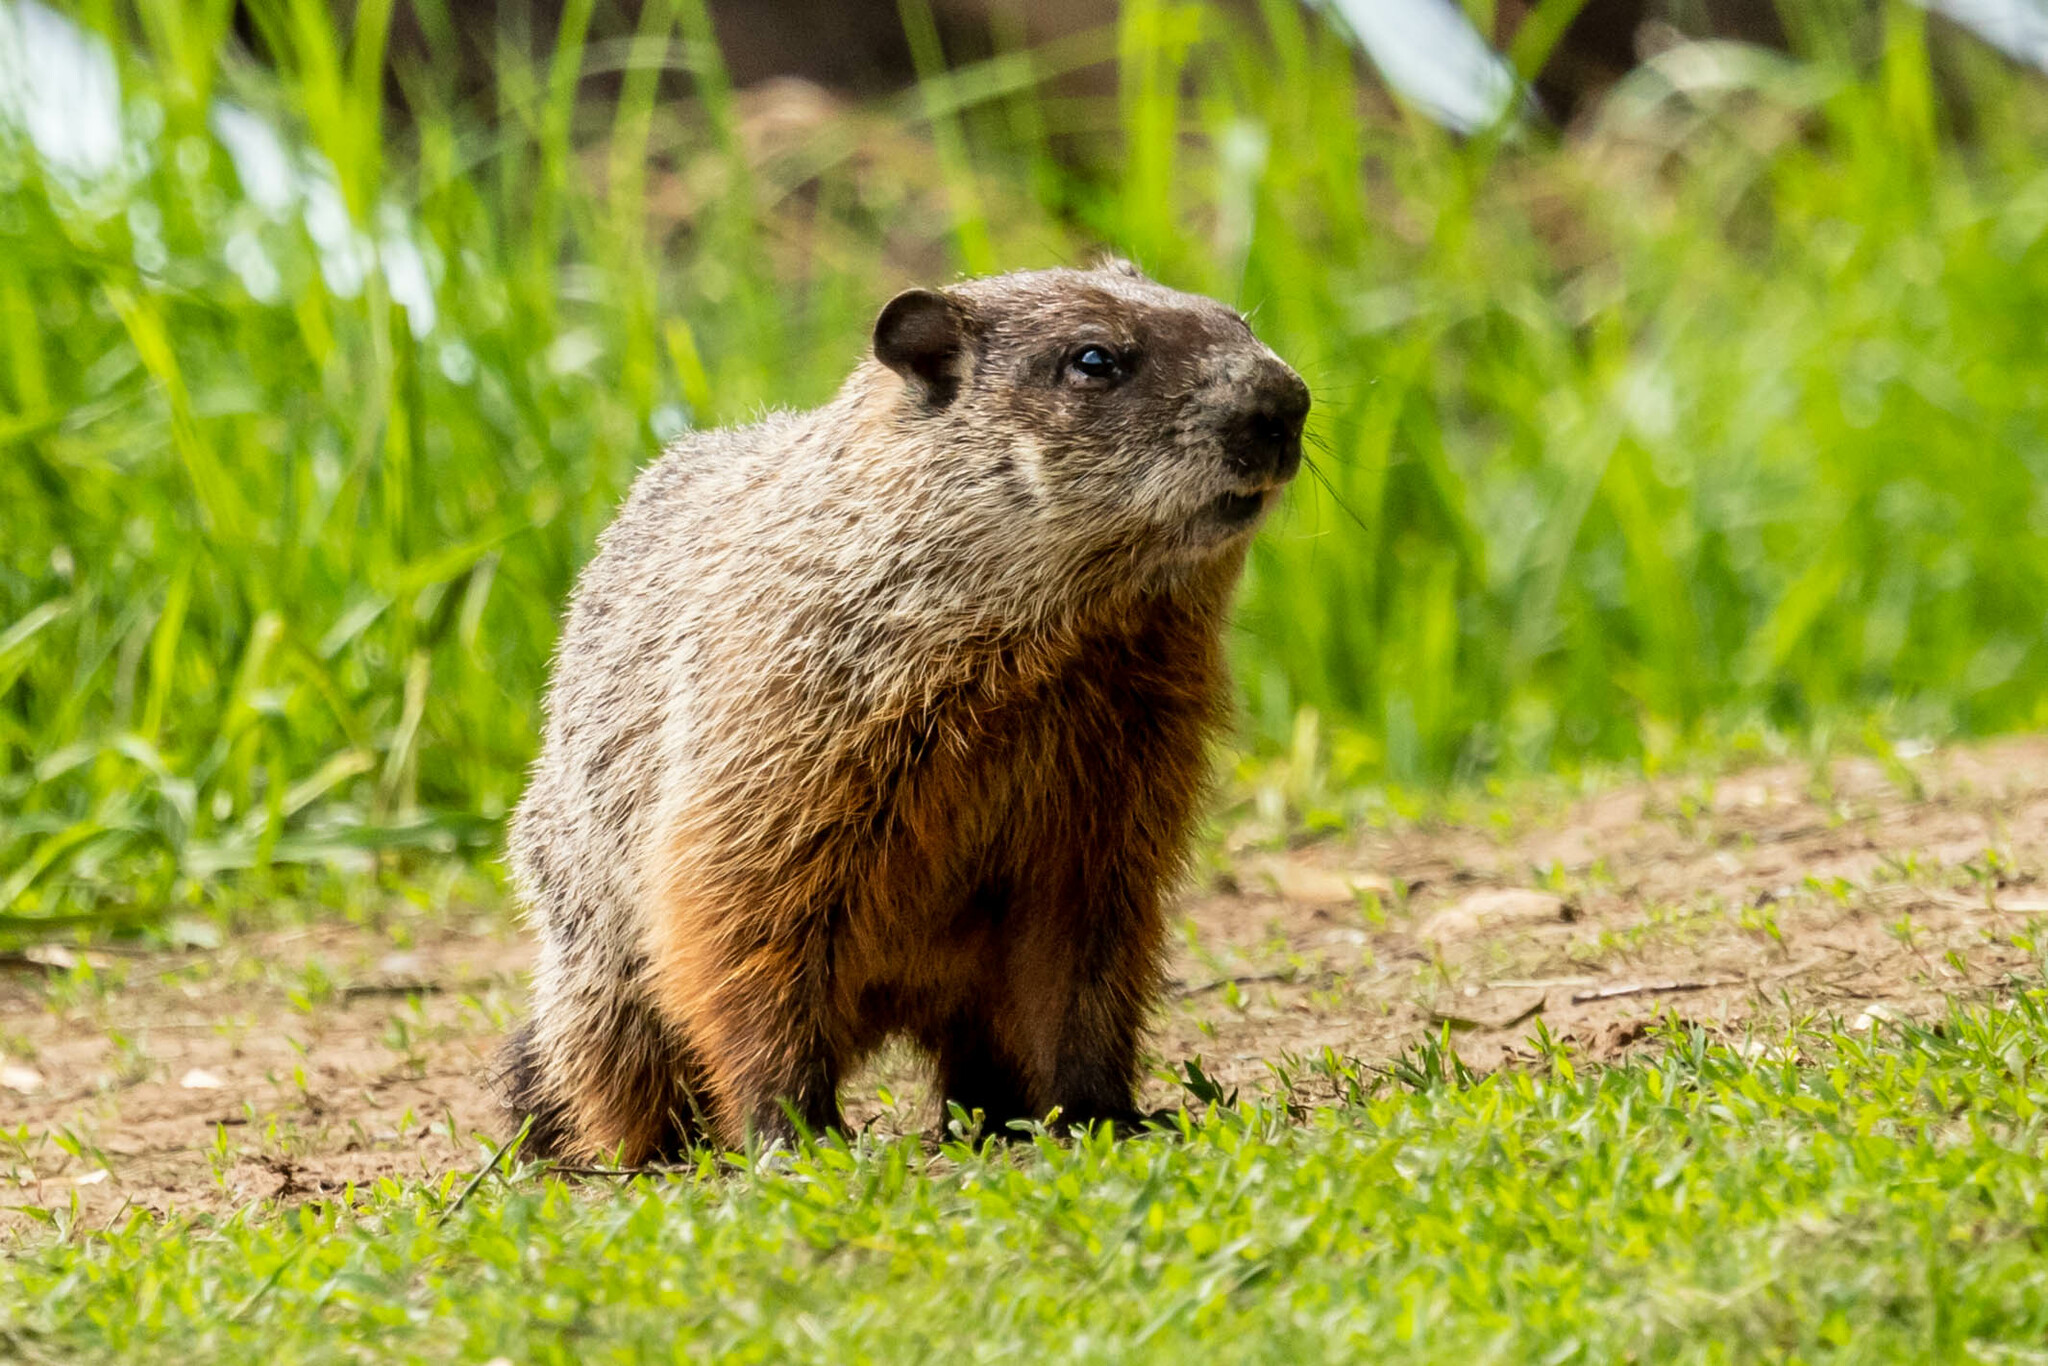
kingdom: Animalia
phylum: Chordata
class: Mammalia
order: Rodentia
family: Sciuridae
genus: Marmota
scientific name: Marmota monax
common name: Groundhog
